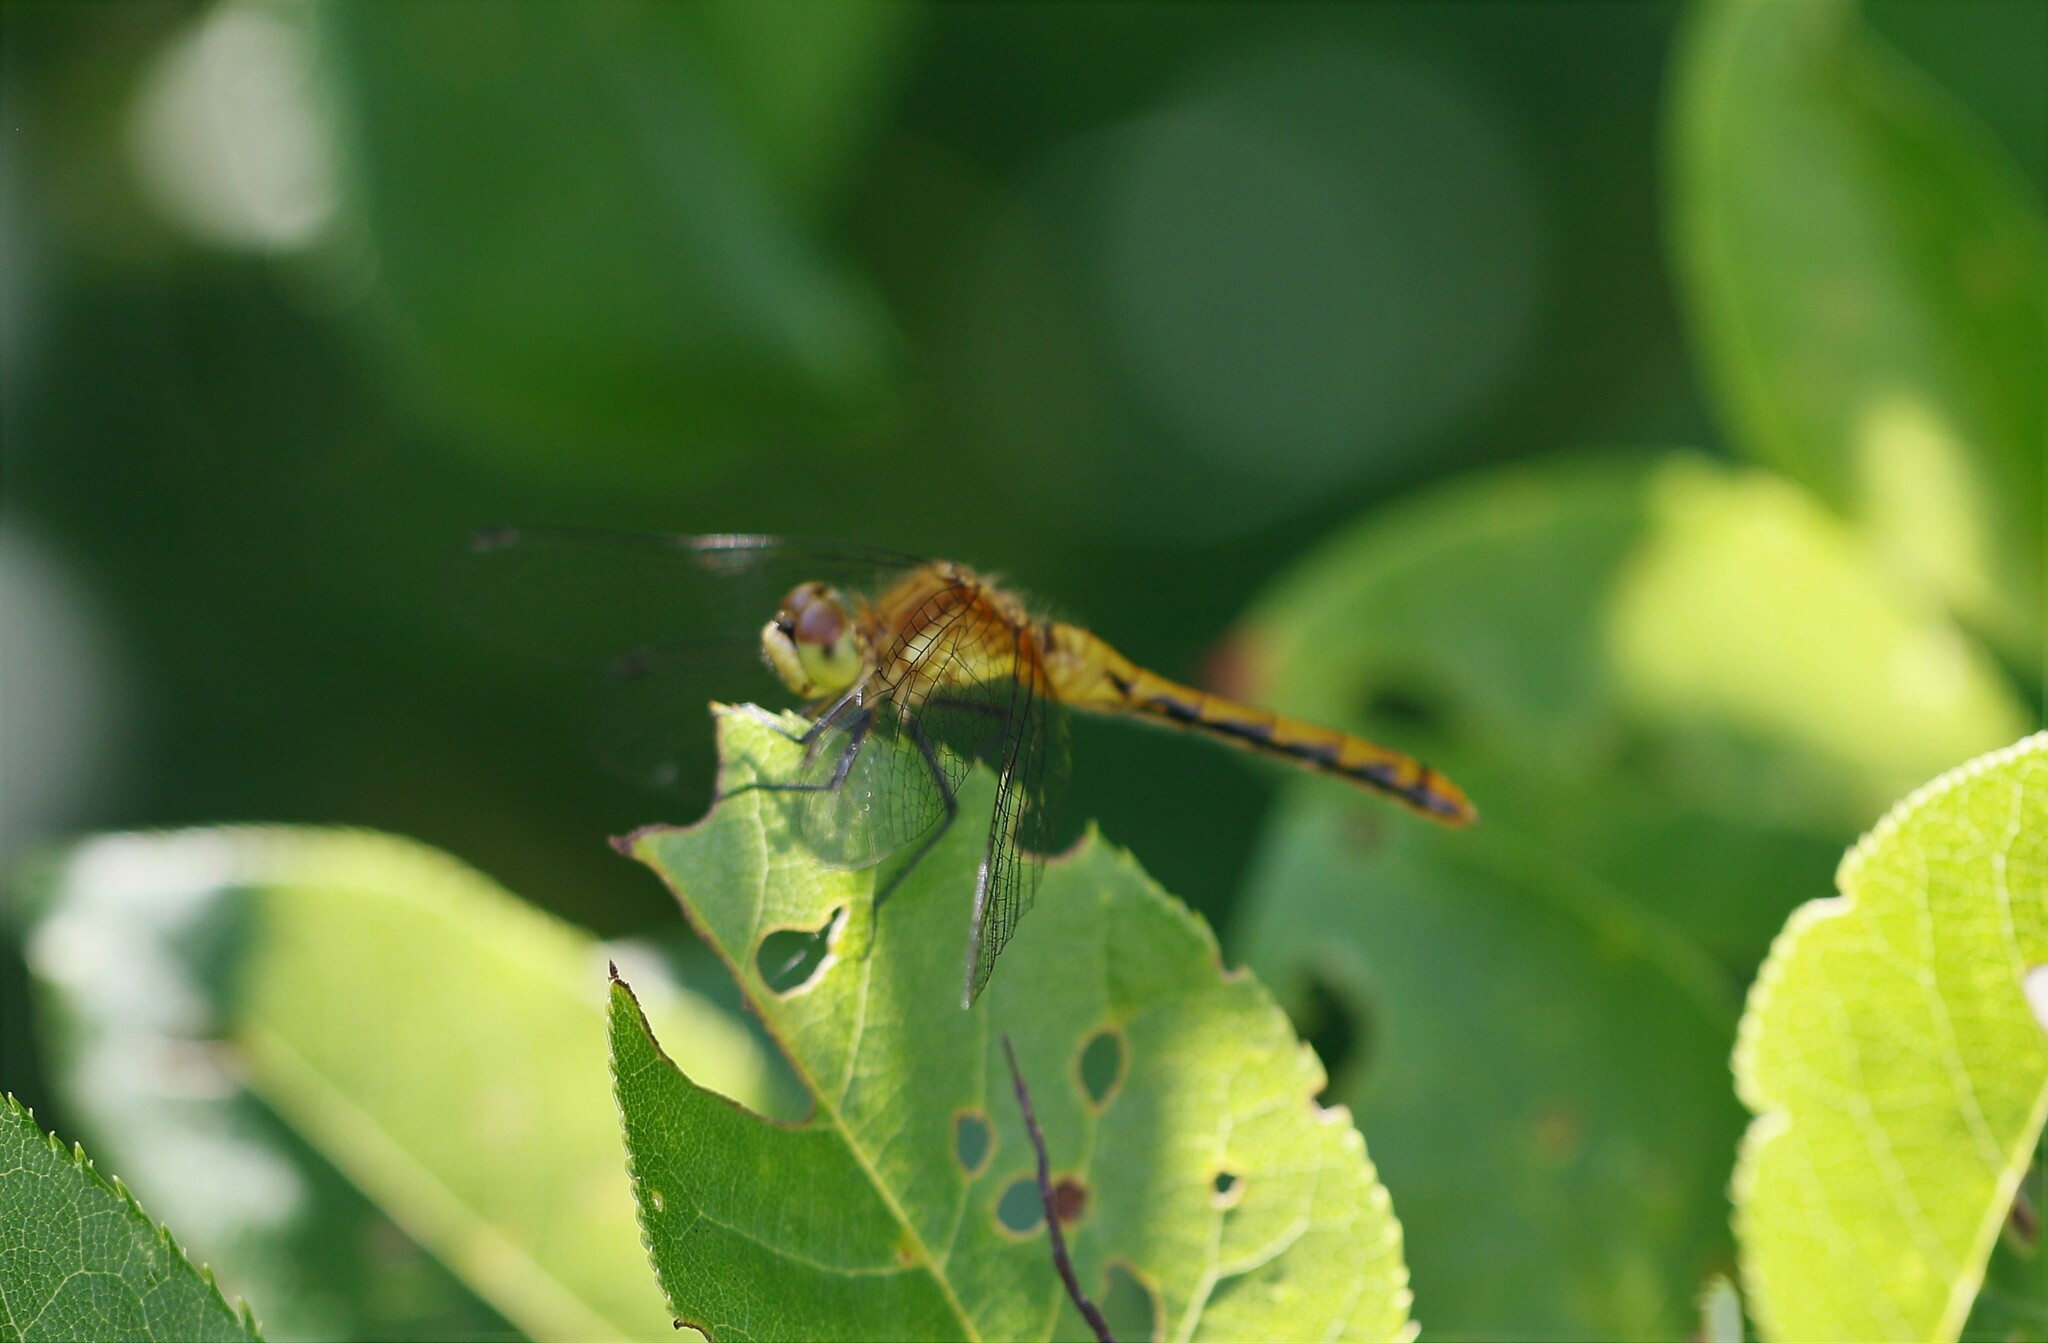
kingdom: Animalia
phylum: Arthropoda
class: Insecta
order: Odonata
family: Libellulidae
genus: Sympetrum
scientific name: Sympetrum obtrusum
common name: White-faced meadowhawk
